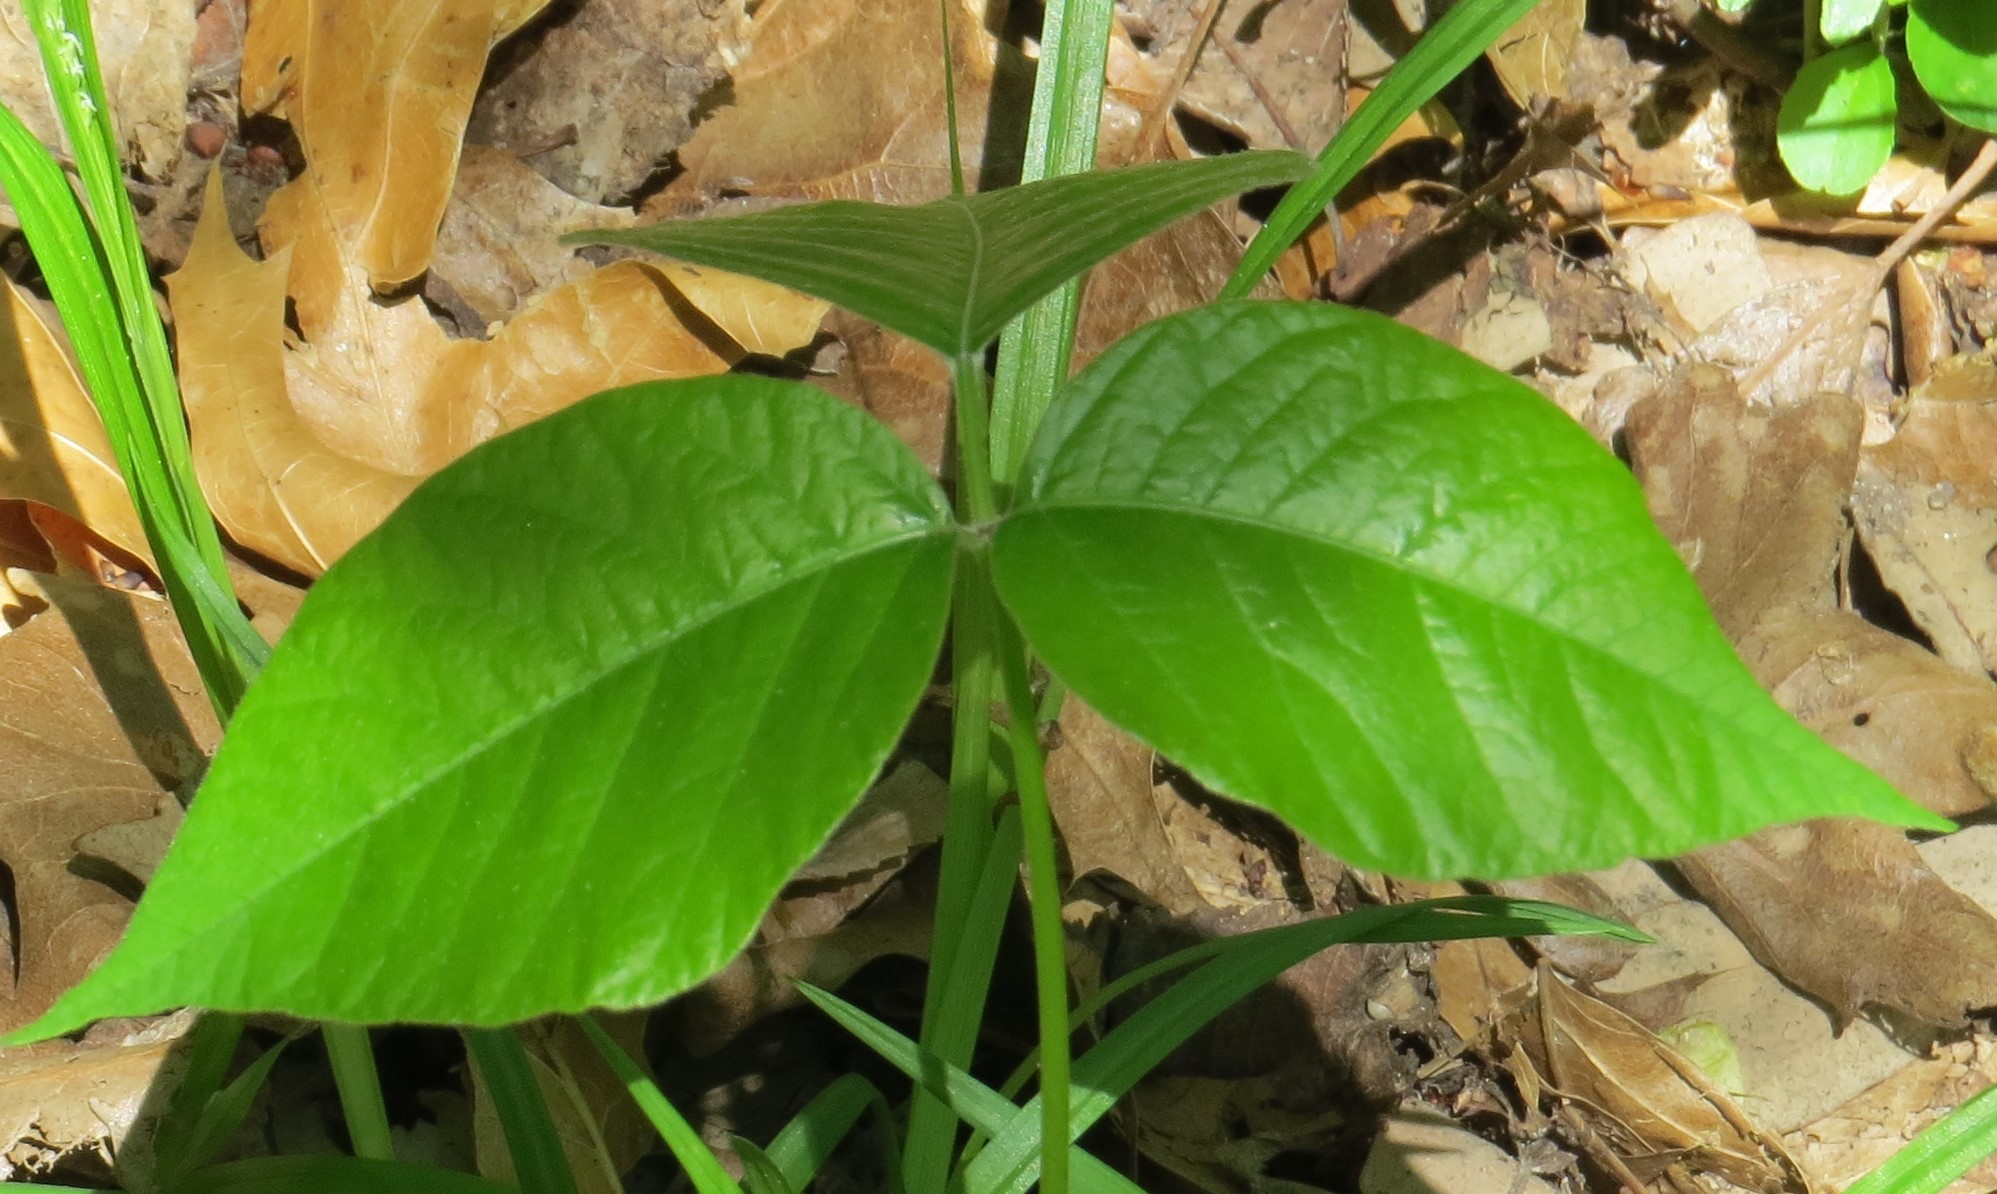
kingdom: Plantae
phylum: Tracheophyta
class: Magnoliopsida
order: Sapindales
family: Anacardiaceae
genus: Toxicodendron
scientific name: Toxicodendron rydbergii
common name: Rydberg's poison-ivy
